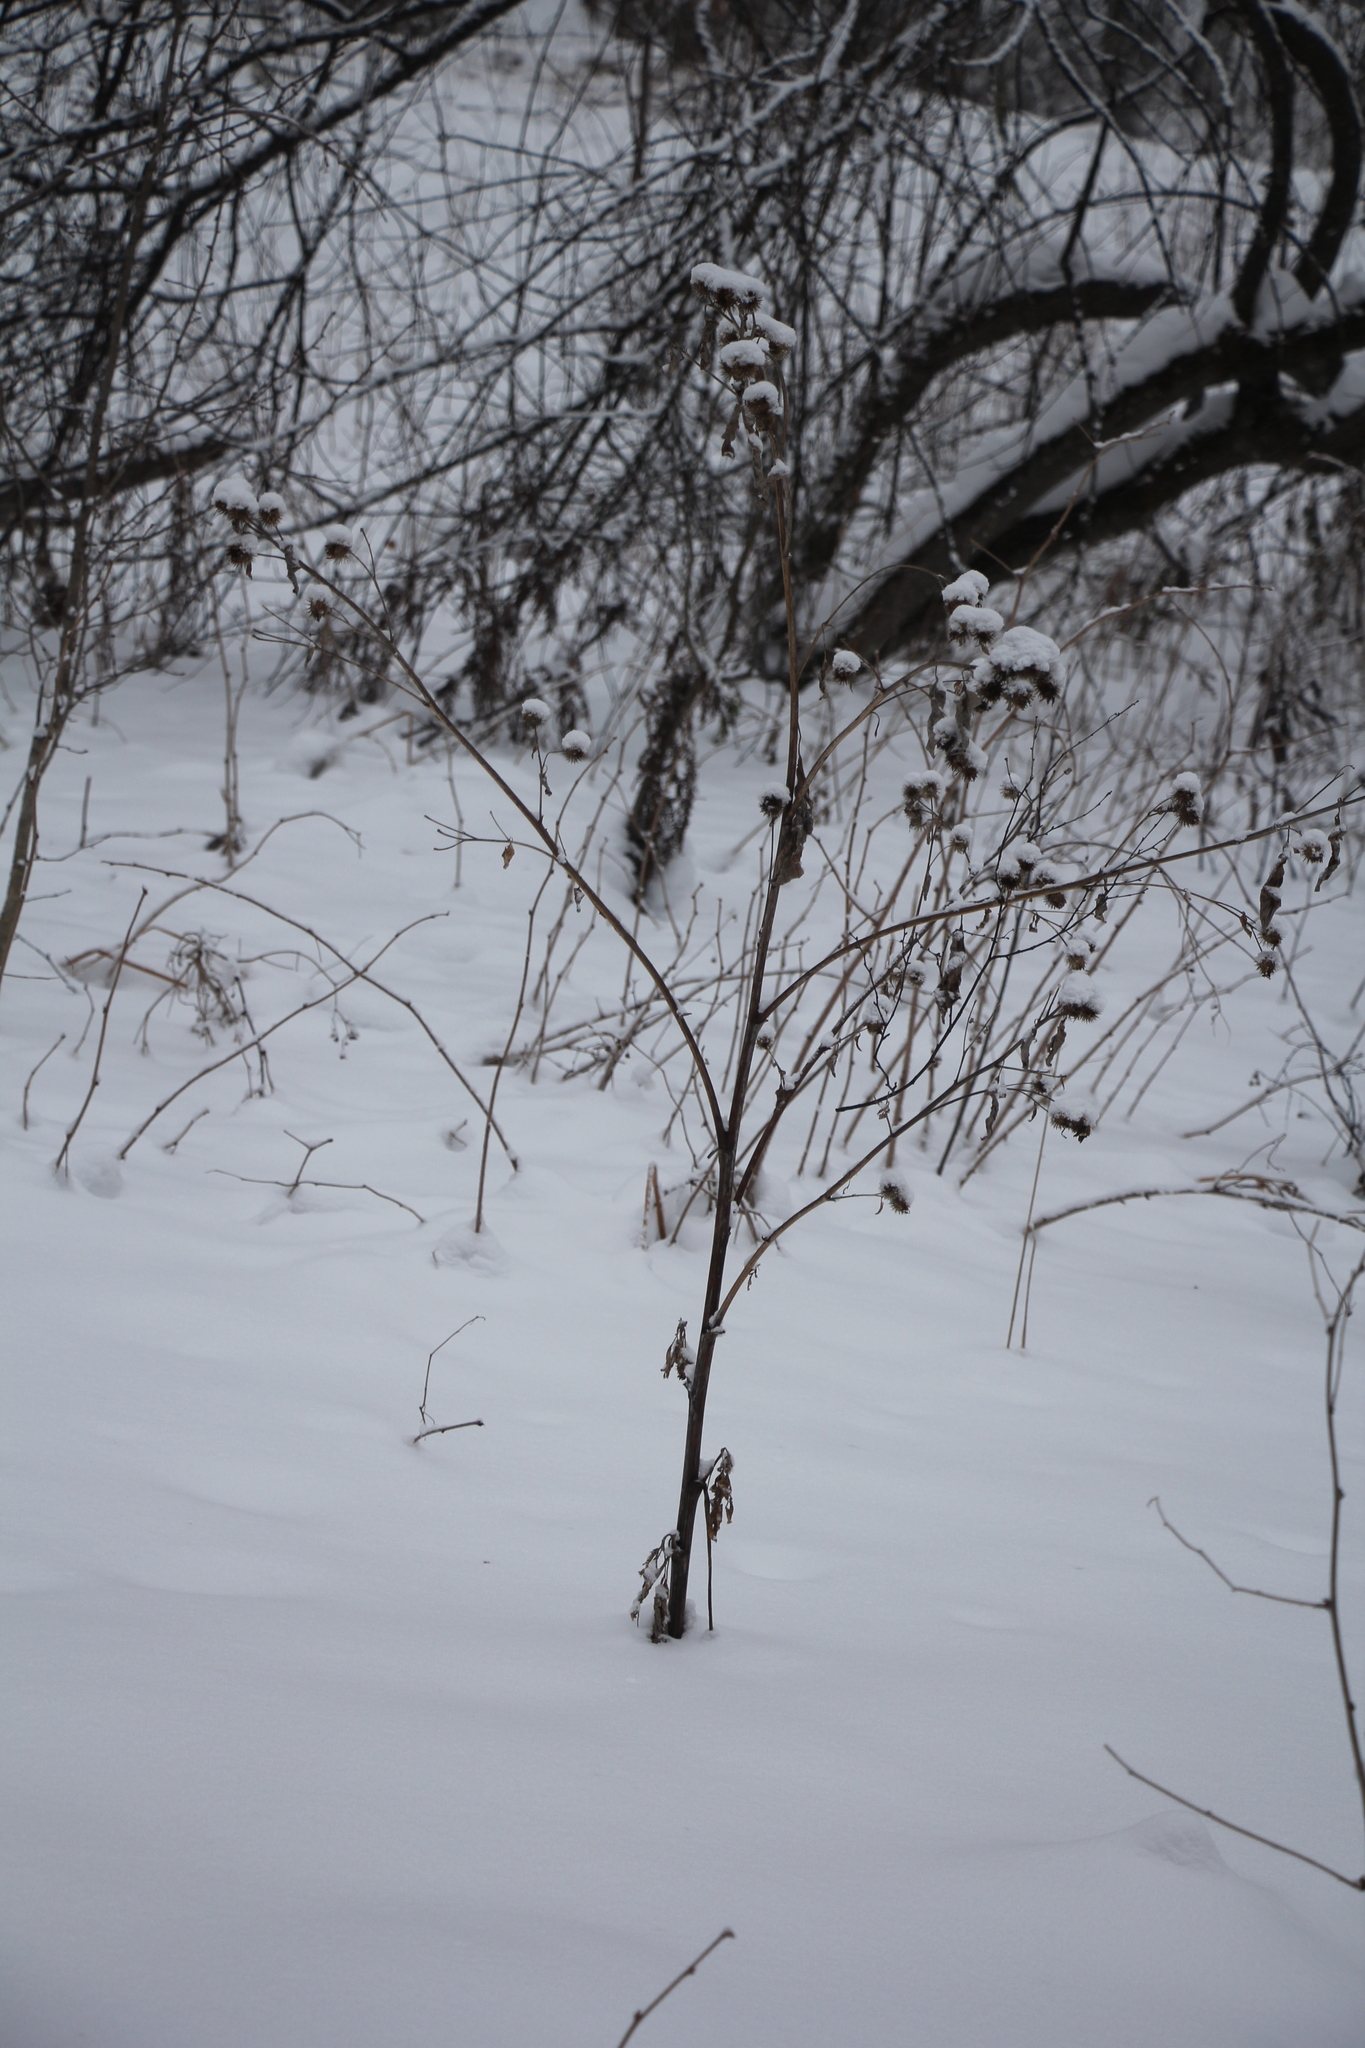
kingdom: Plantae
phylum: Tracheophyta
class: Magnoliopsida
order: Asterales
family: Asteraceae
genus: Arctium
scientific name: Arctium tomentosum
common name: Woolly burdock
